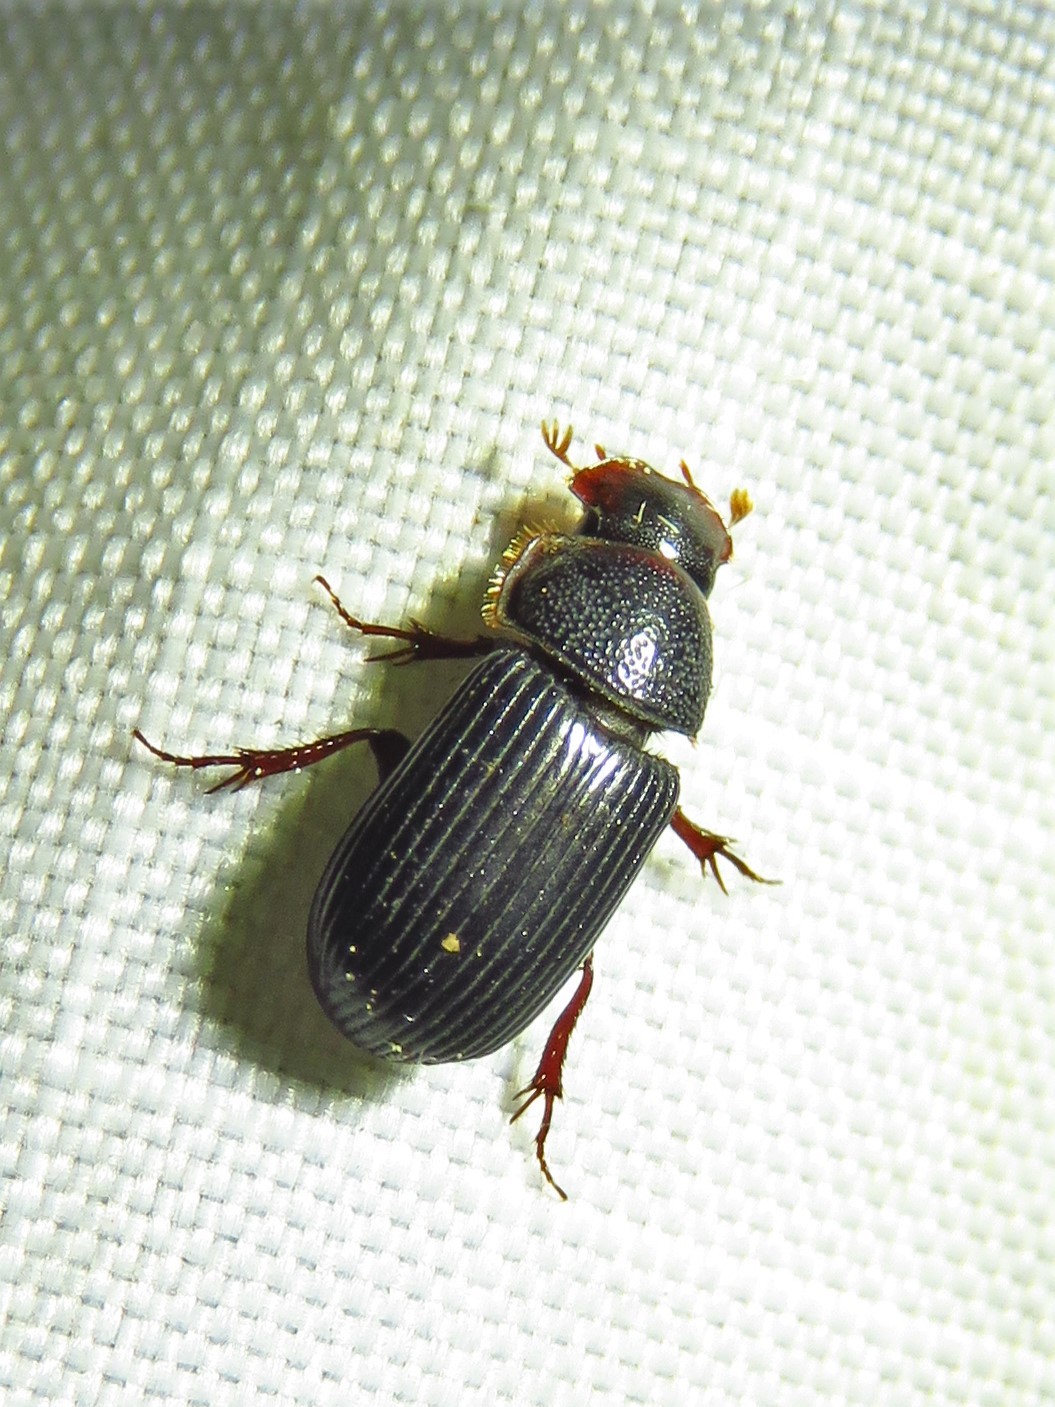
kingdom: Animalia
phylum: Arthropoda
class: Insecta
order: Coleoptera
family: Scarabaeidae
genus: Martineziana
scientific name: Martineziana dutertrei
